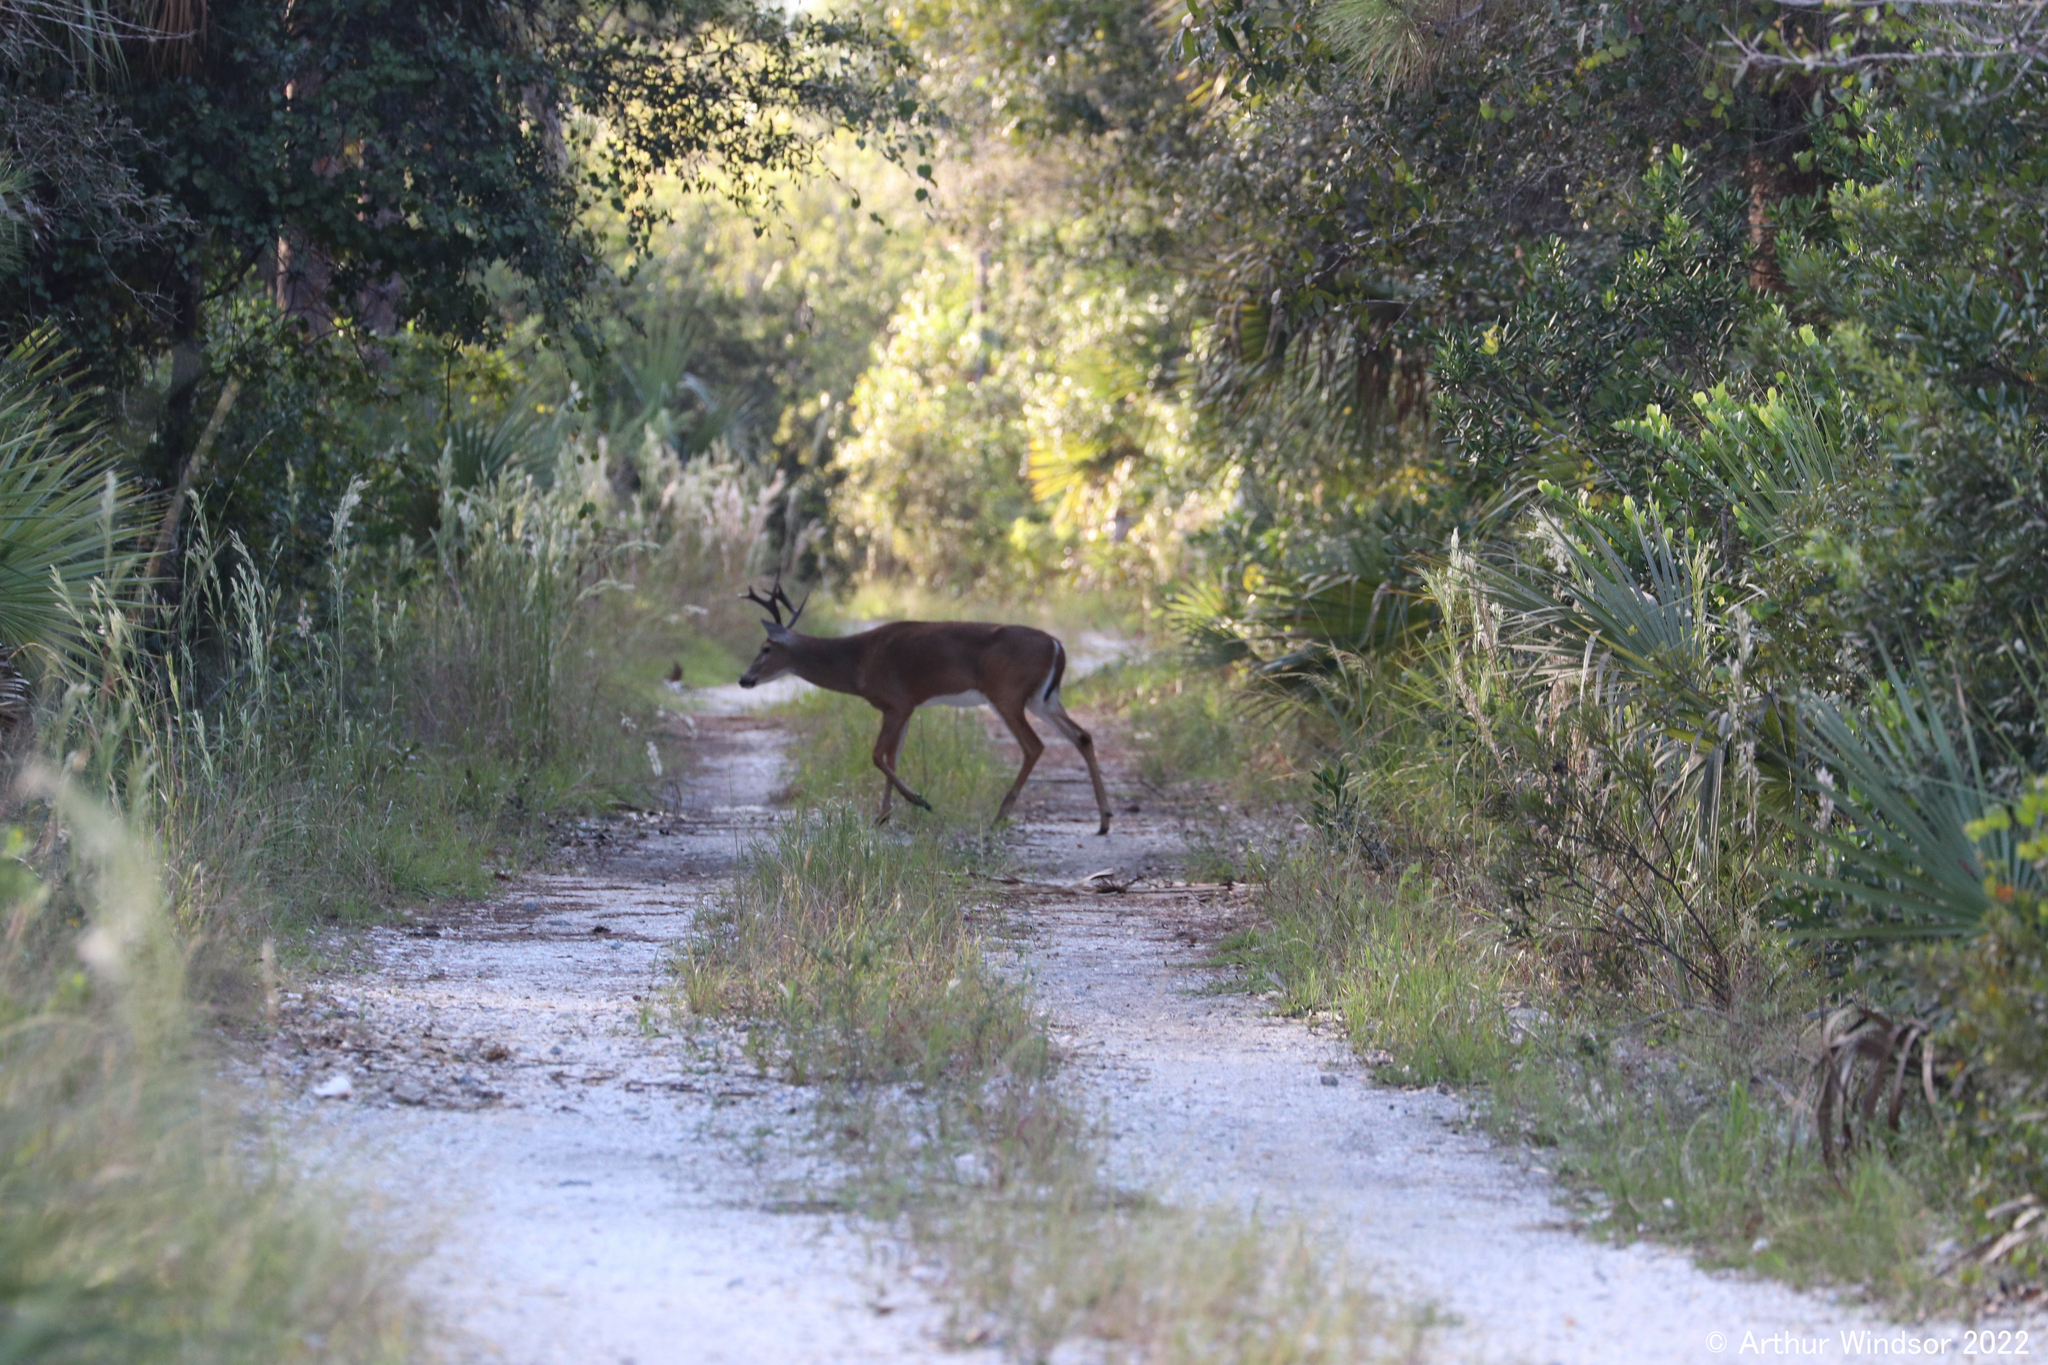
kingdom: Animalia
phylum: Chordata
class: Mammalia
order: Artiodactyla
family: Cervidae
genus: Odocoileus
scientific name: Odocoileus virginianus
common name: White-tailed deer
